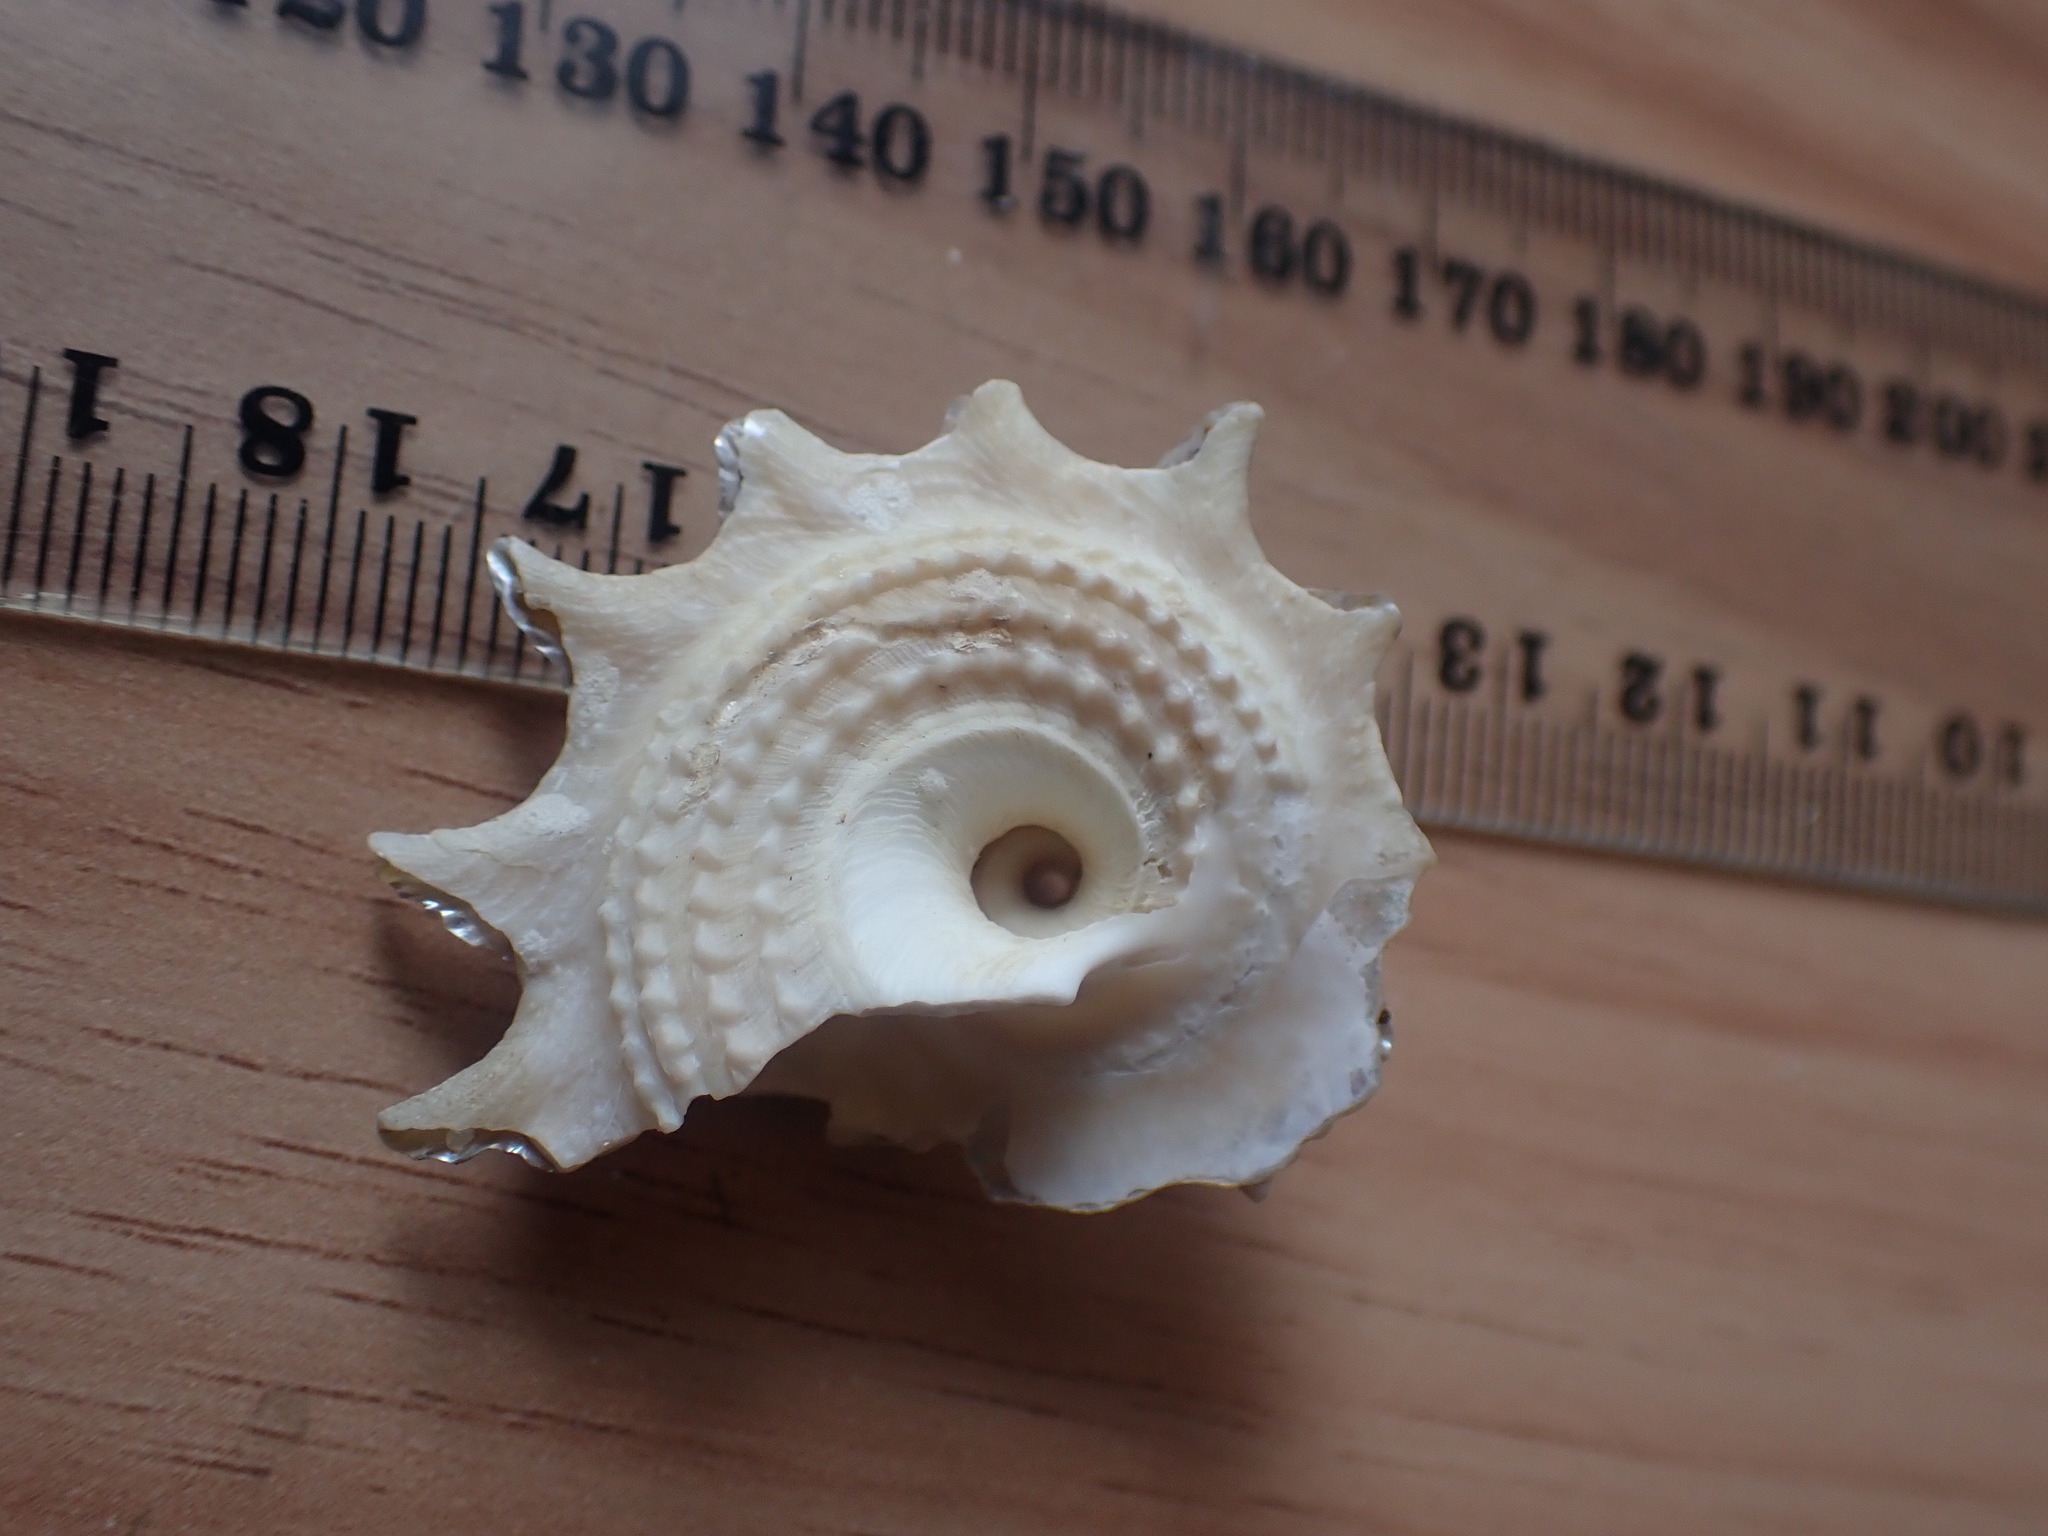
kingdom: Animalia
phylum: Mollusca
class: Gastropoda
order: Trochida
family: Turbinidae
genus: Astraea
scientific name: Astraea heliotropium
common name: Sun shell
